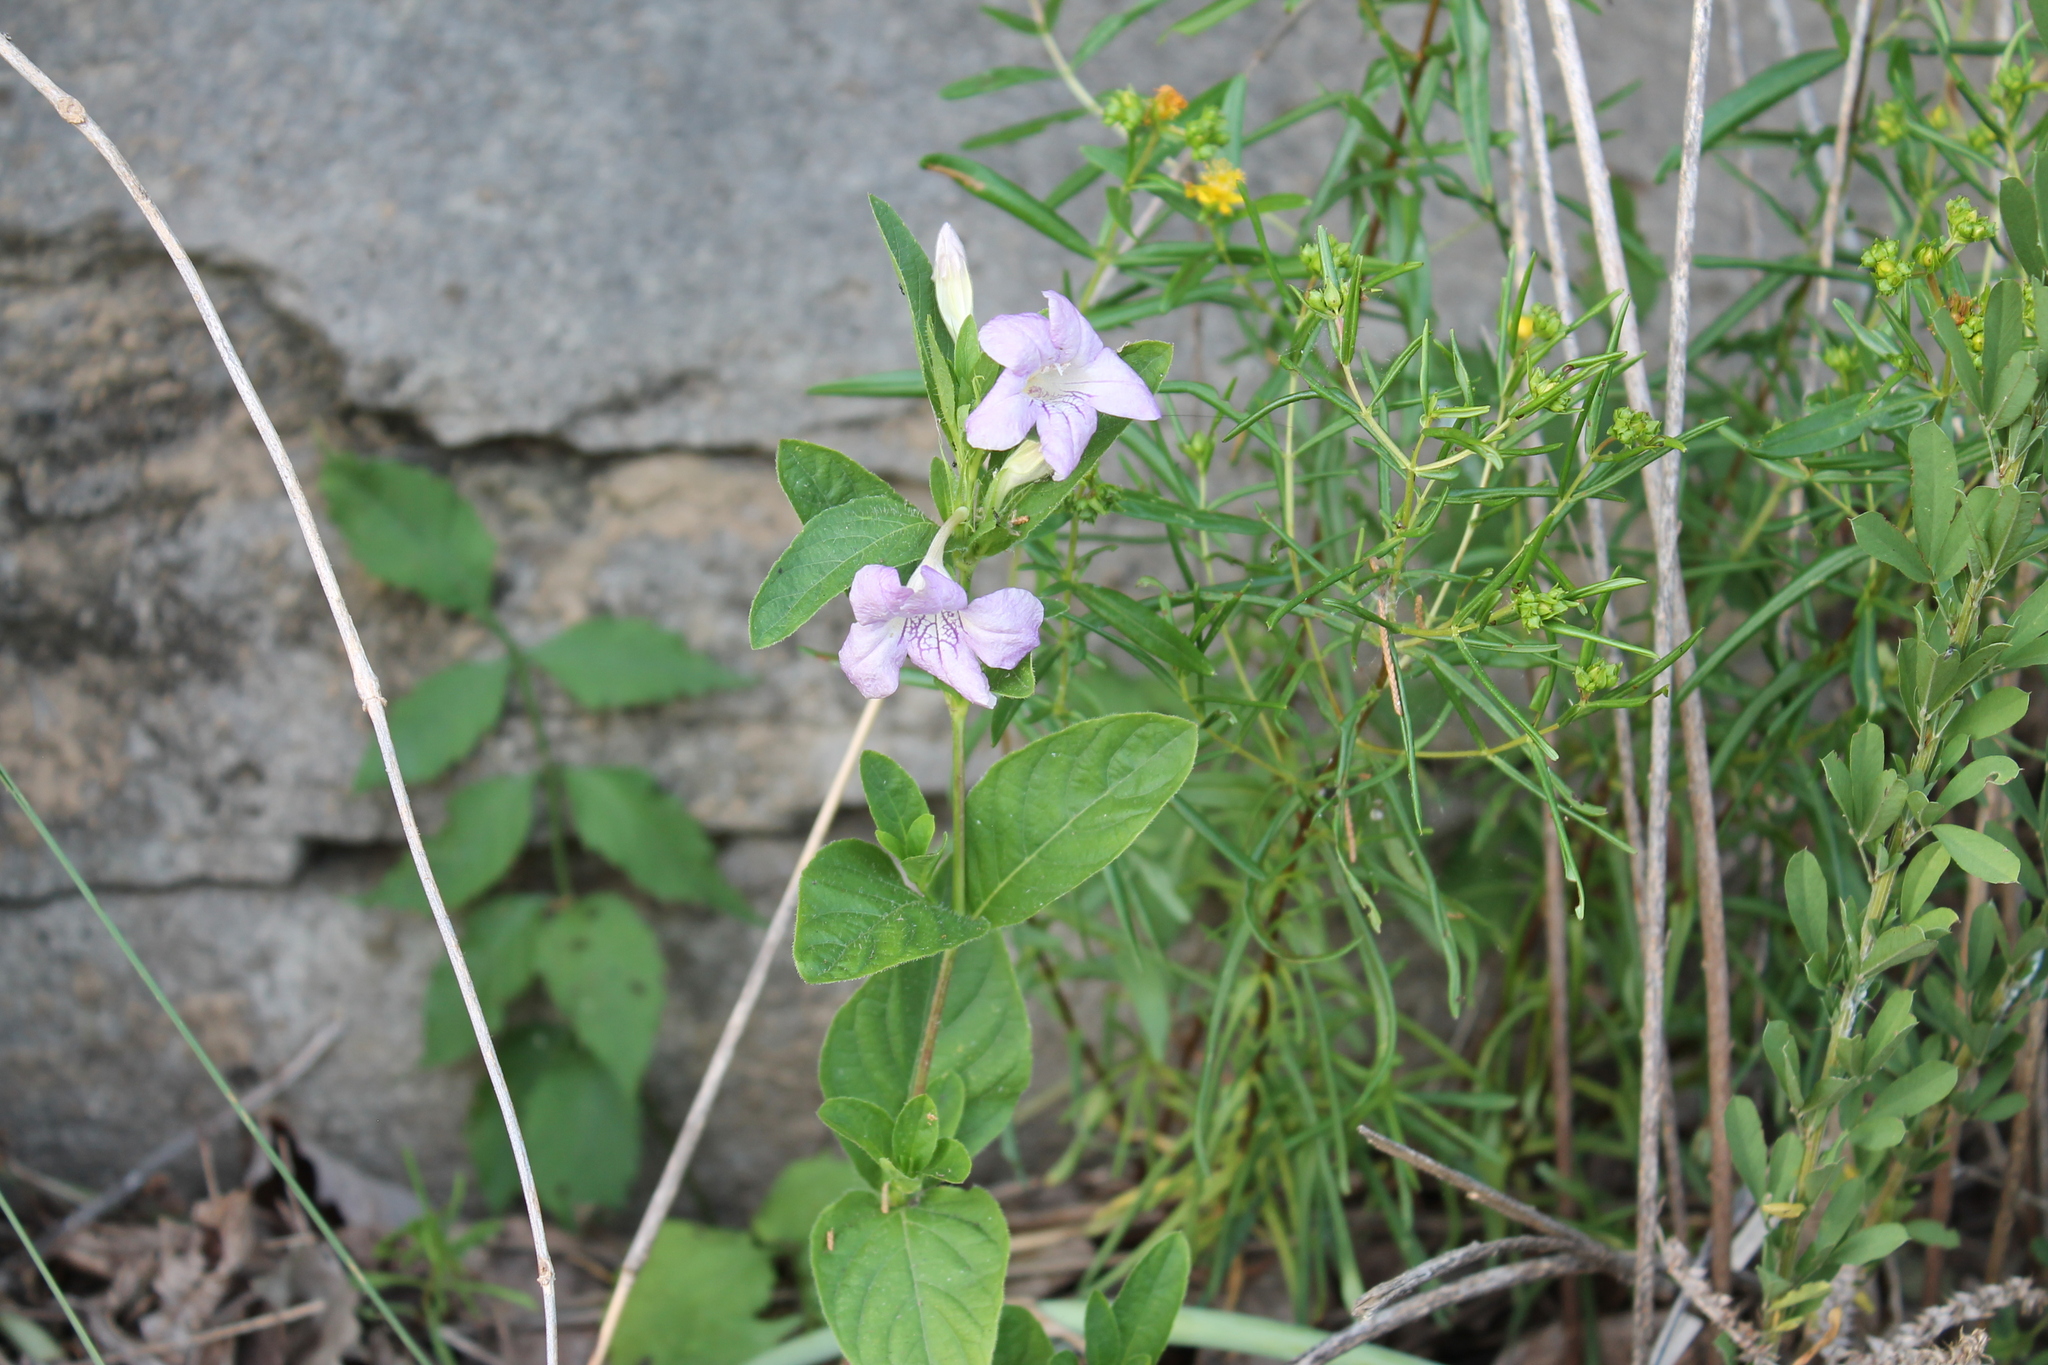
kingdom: Plantae
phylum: Tracheophyta
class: Magnoliopsida
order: Lamiales
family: Acanthaceae
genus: Ruellia
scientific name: Ruellia strepens
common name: Limestone wild petunia
